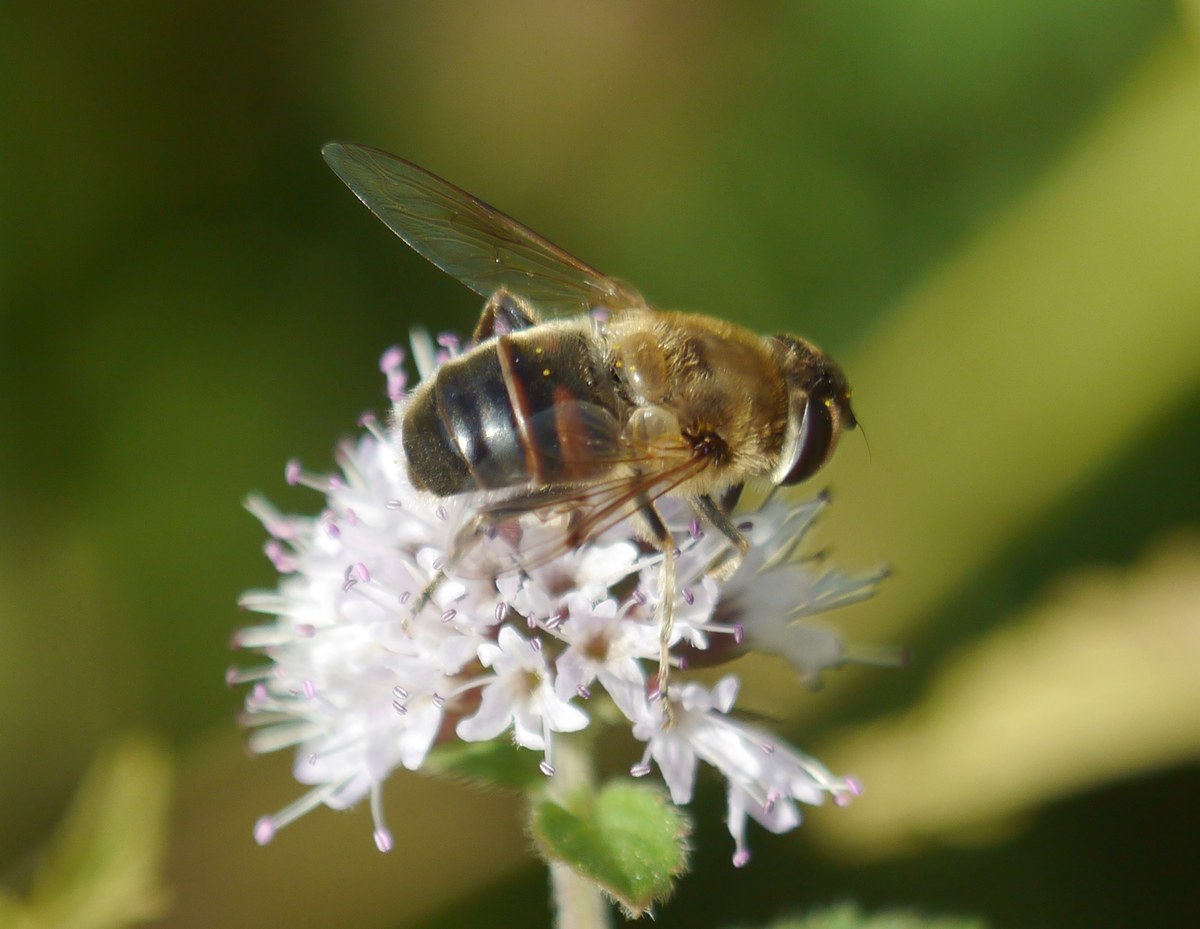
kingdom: Animalia
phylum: Arthropoda
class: Insecta
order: Diptera
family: Syrphidae
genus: Eristalis
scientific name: Eristalis tenax
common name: Drone fly
